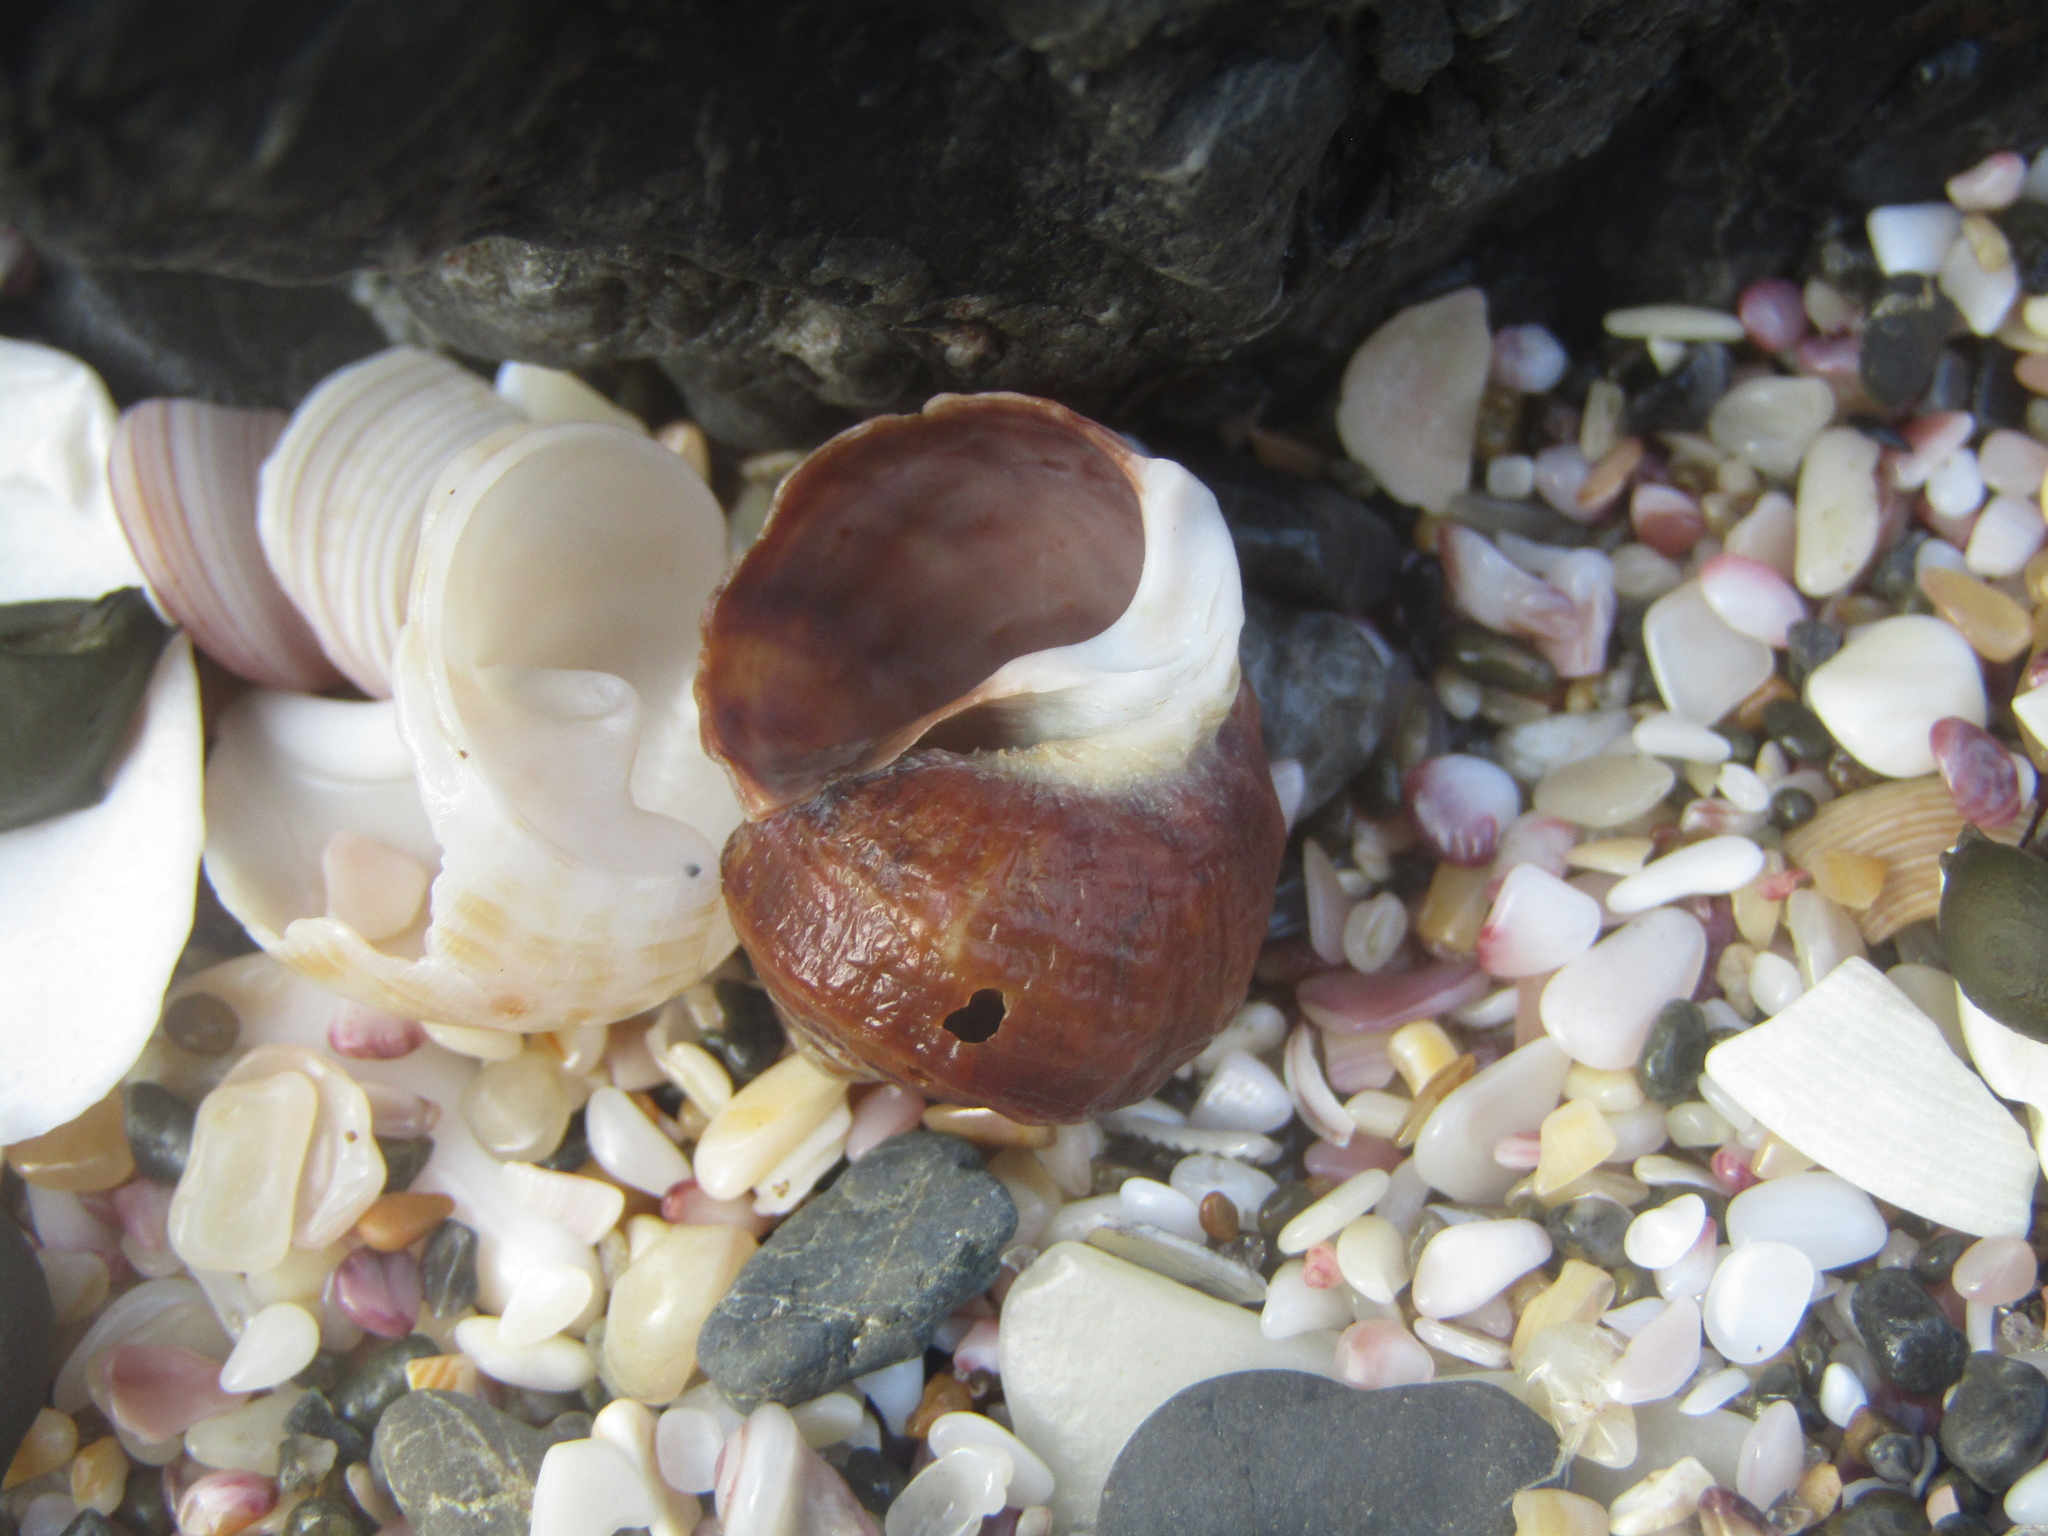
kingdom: Animalia
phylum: Mollusca
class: Gastropoda
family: Amphibolidae
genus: Amphibola
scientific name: Amphibola crenata
